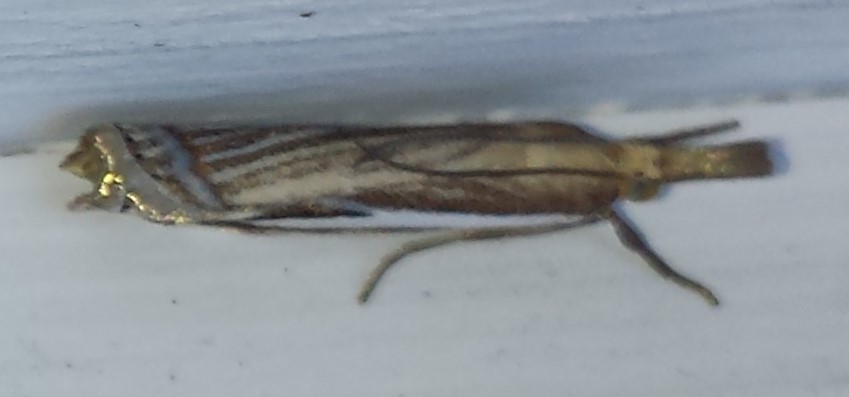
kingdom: Animalia
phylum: Arthropoda
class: Insecta
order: Lepidoptera
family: Crambidae
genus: Crambus
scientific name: Crambus
